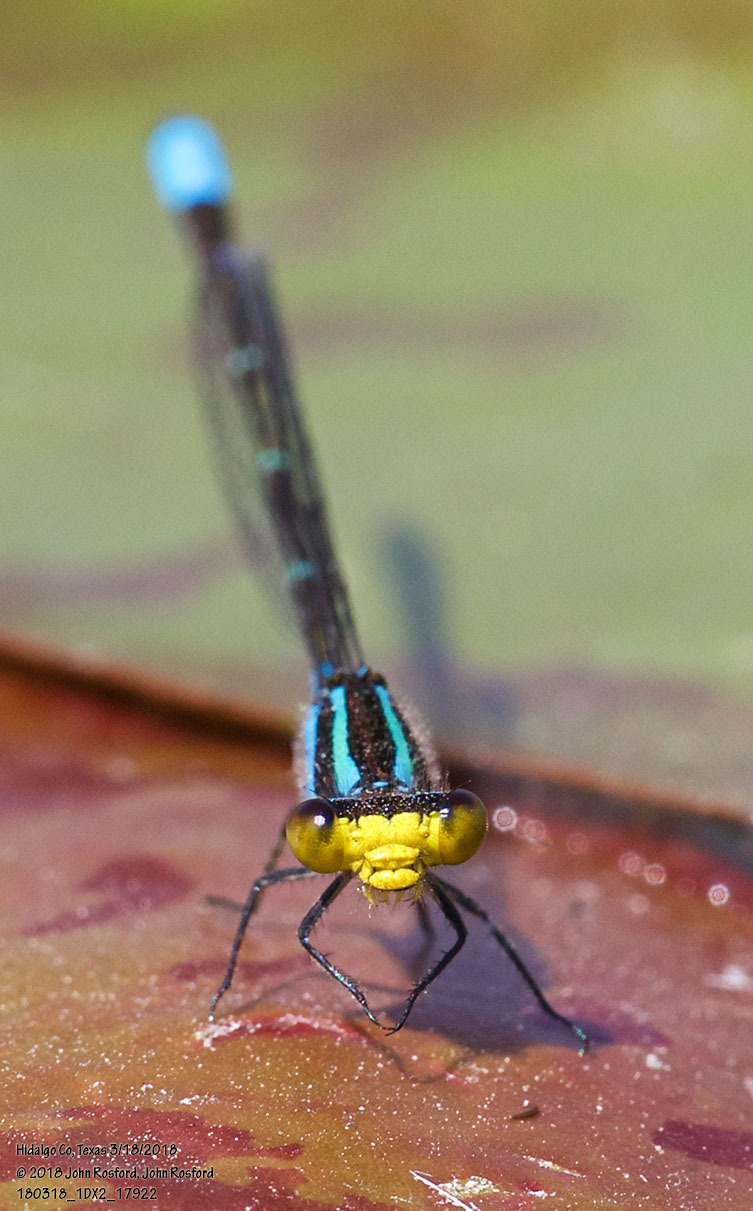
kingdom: Animalia
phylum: Arthropoda
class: Insecta
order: Odonata
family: Coenagrionidae
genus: Neoerythromma
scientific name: Neoerythromma cultellatum
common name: Caribbean yellowface
